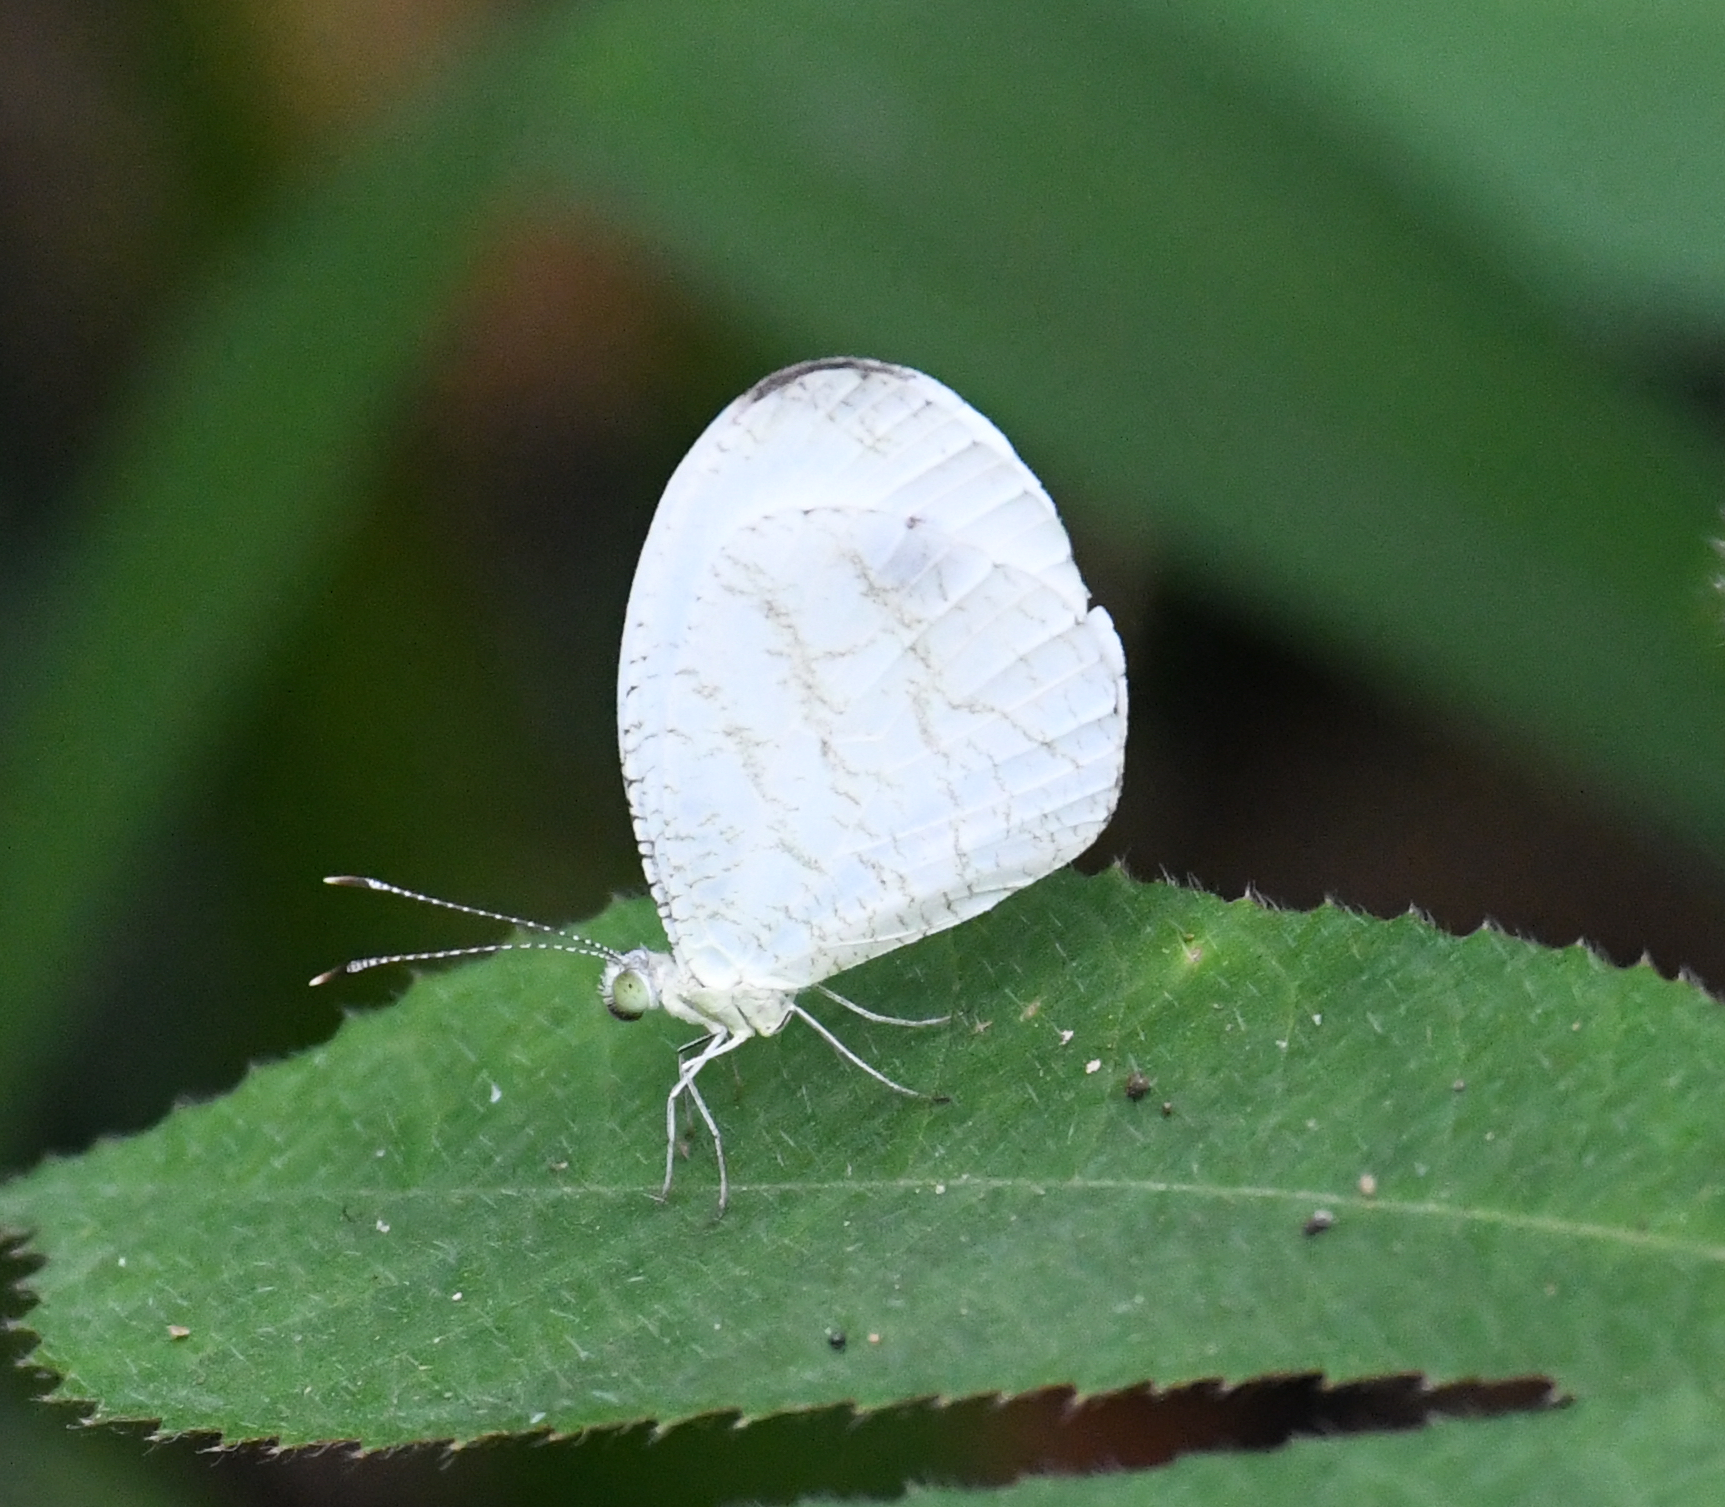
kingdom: Animalia
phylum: Arthropoda
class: Insecta
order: Lepidoptera
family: Pieridae
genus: Leptosia
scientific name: Leptosia alcesta
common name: African wood white
